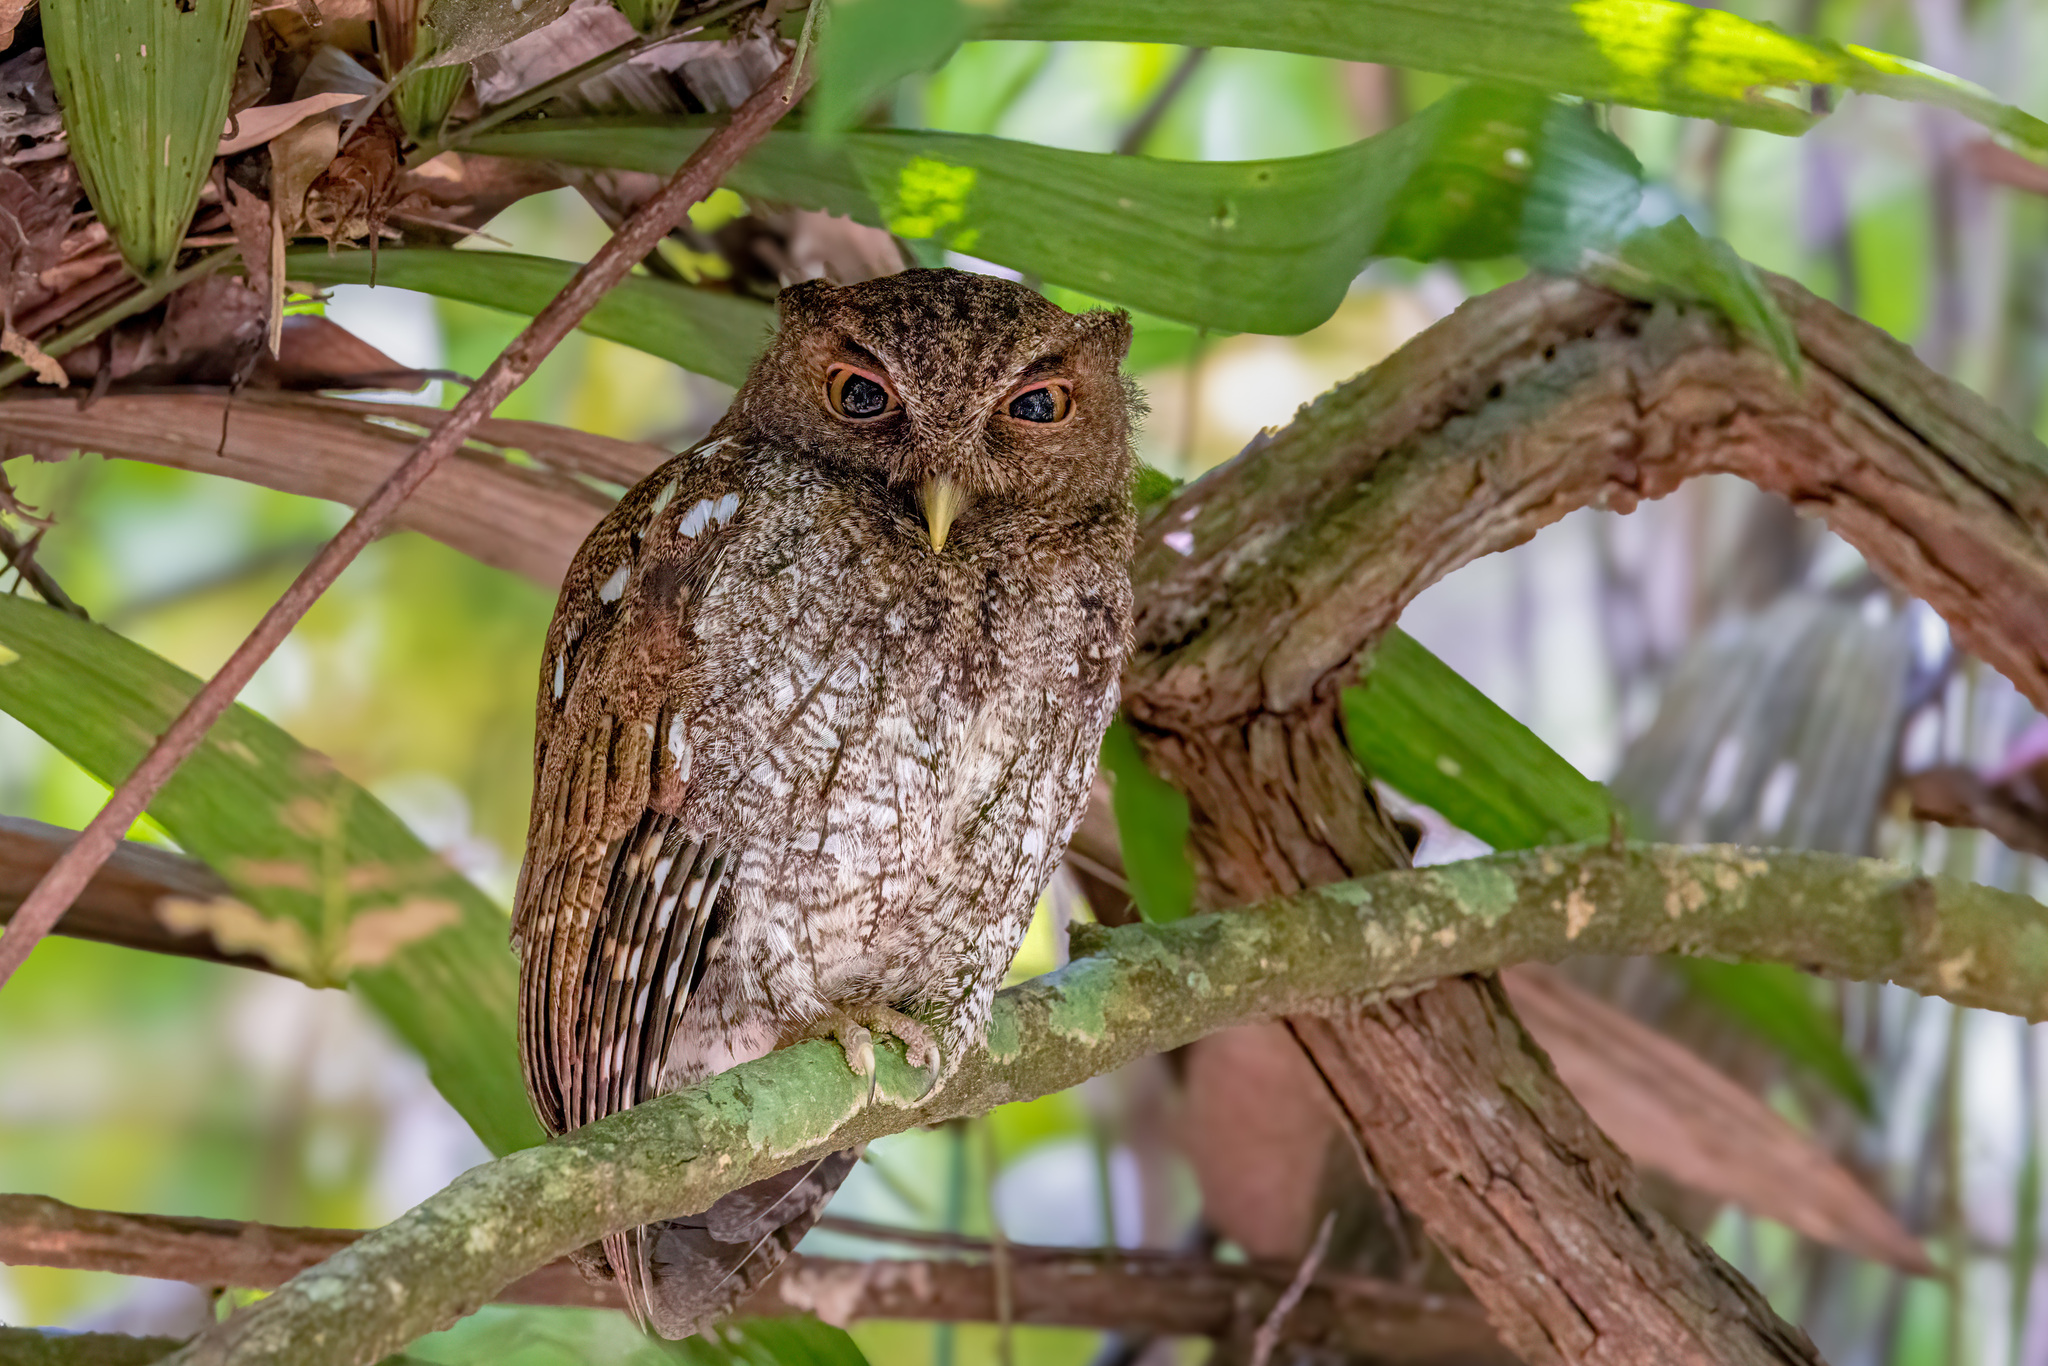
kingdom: Animalia
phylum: Chordata
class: Aves
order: Strigiformes
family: Strigidae
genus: Megascops
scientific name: Megascops centralis
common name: Choco screech owl
